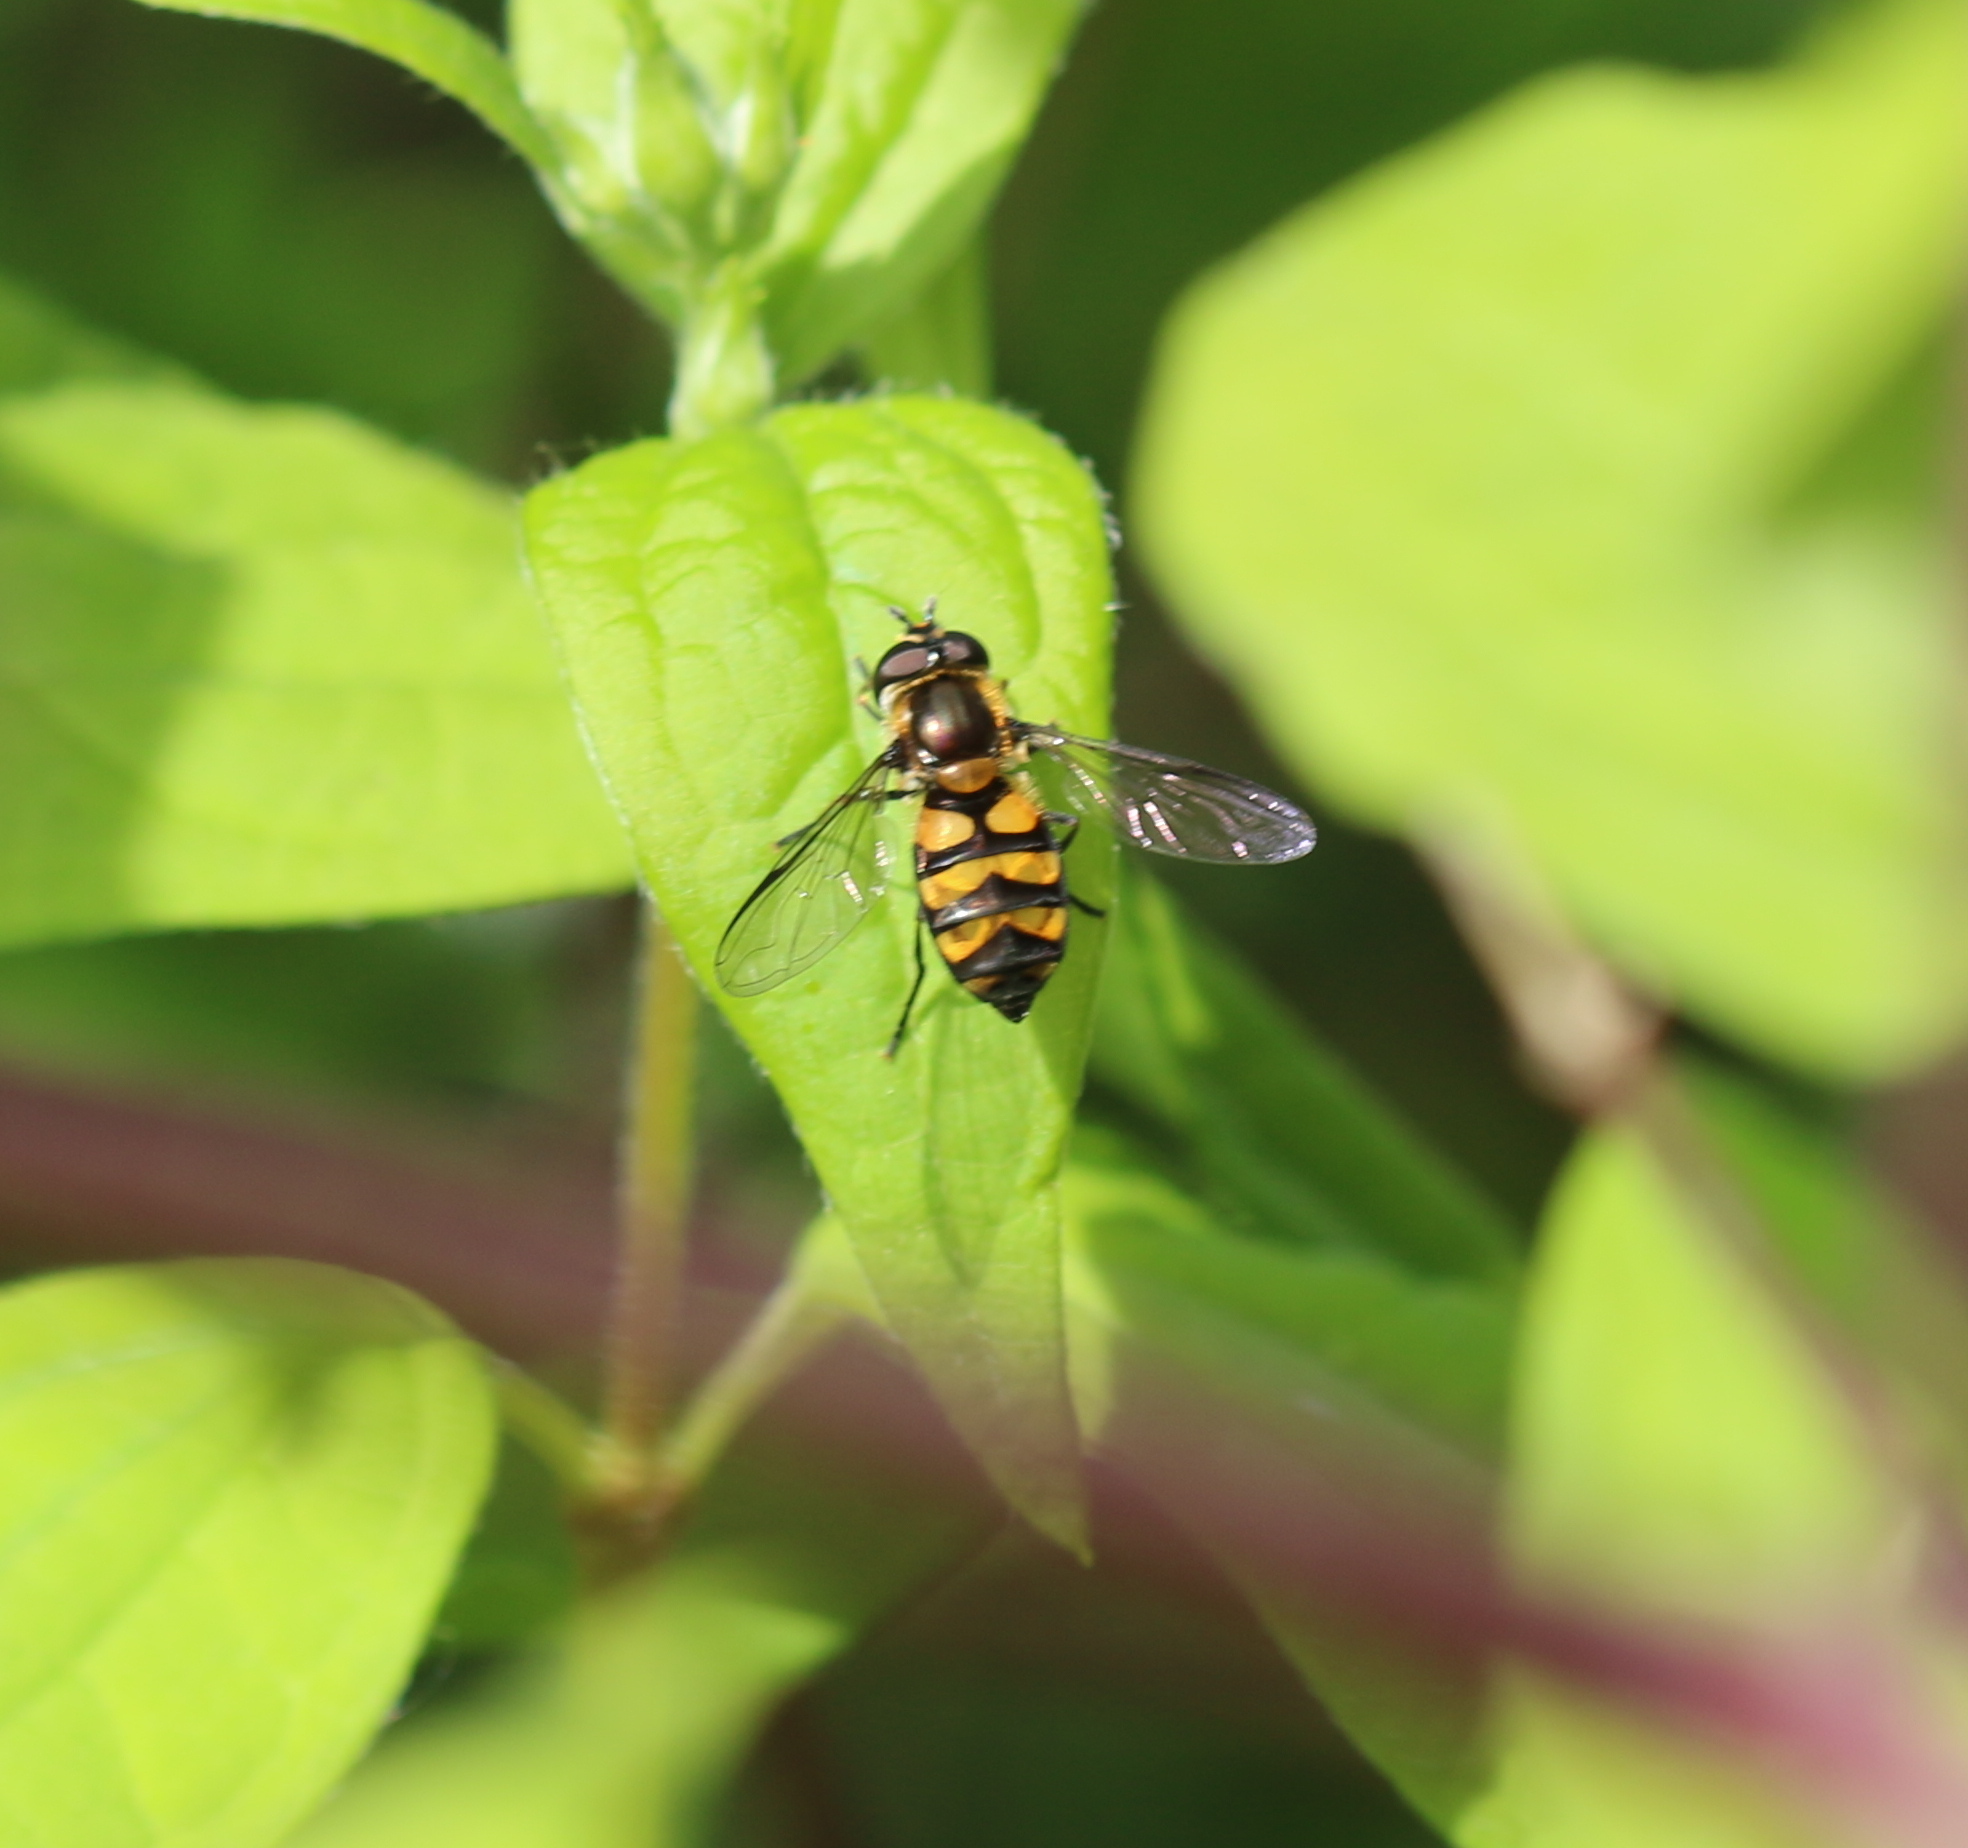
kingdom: Animalia
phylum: Arthropoda
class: Insecta
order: Diptera
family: Syrphidae
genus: Didea
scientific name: Didea fasciata
